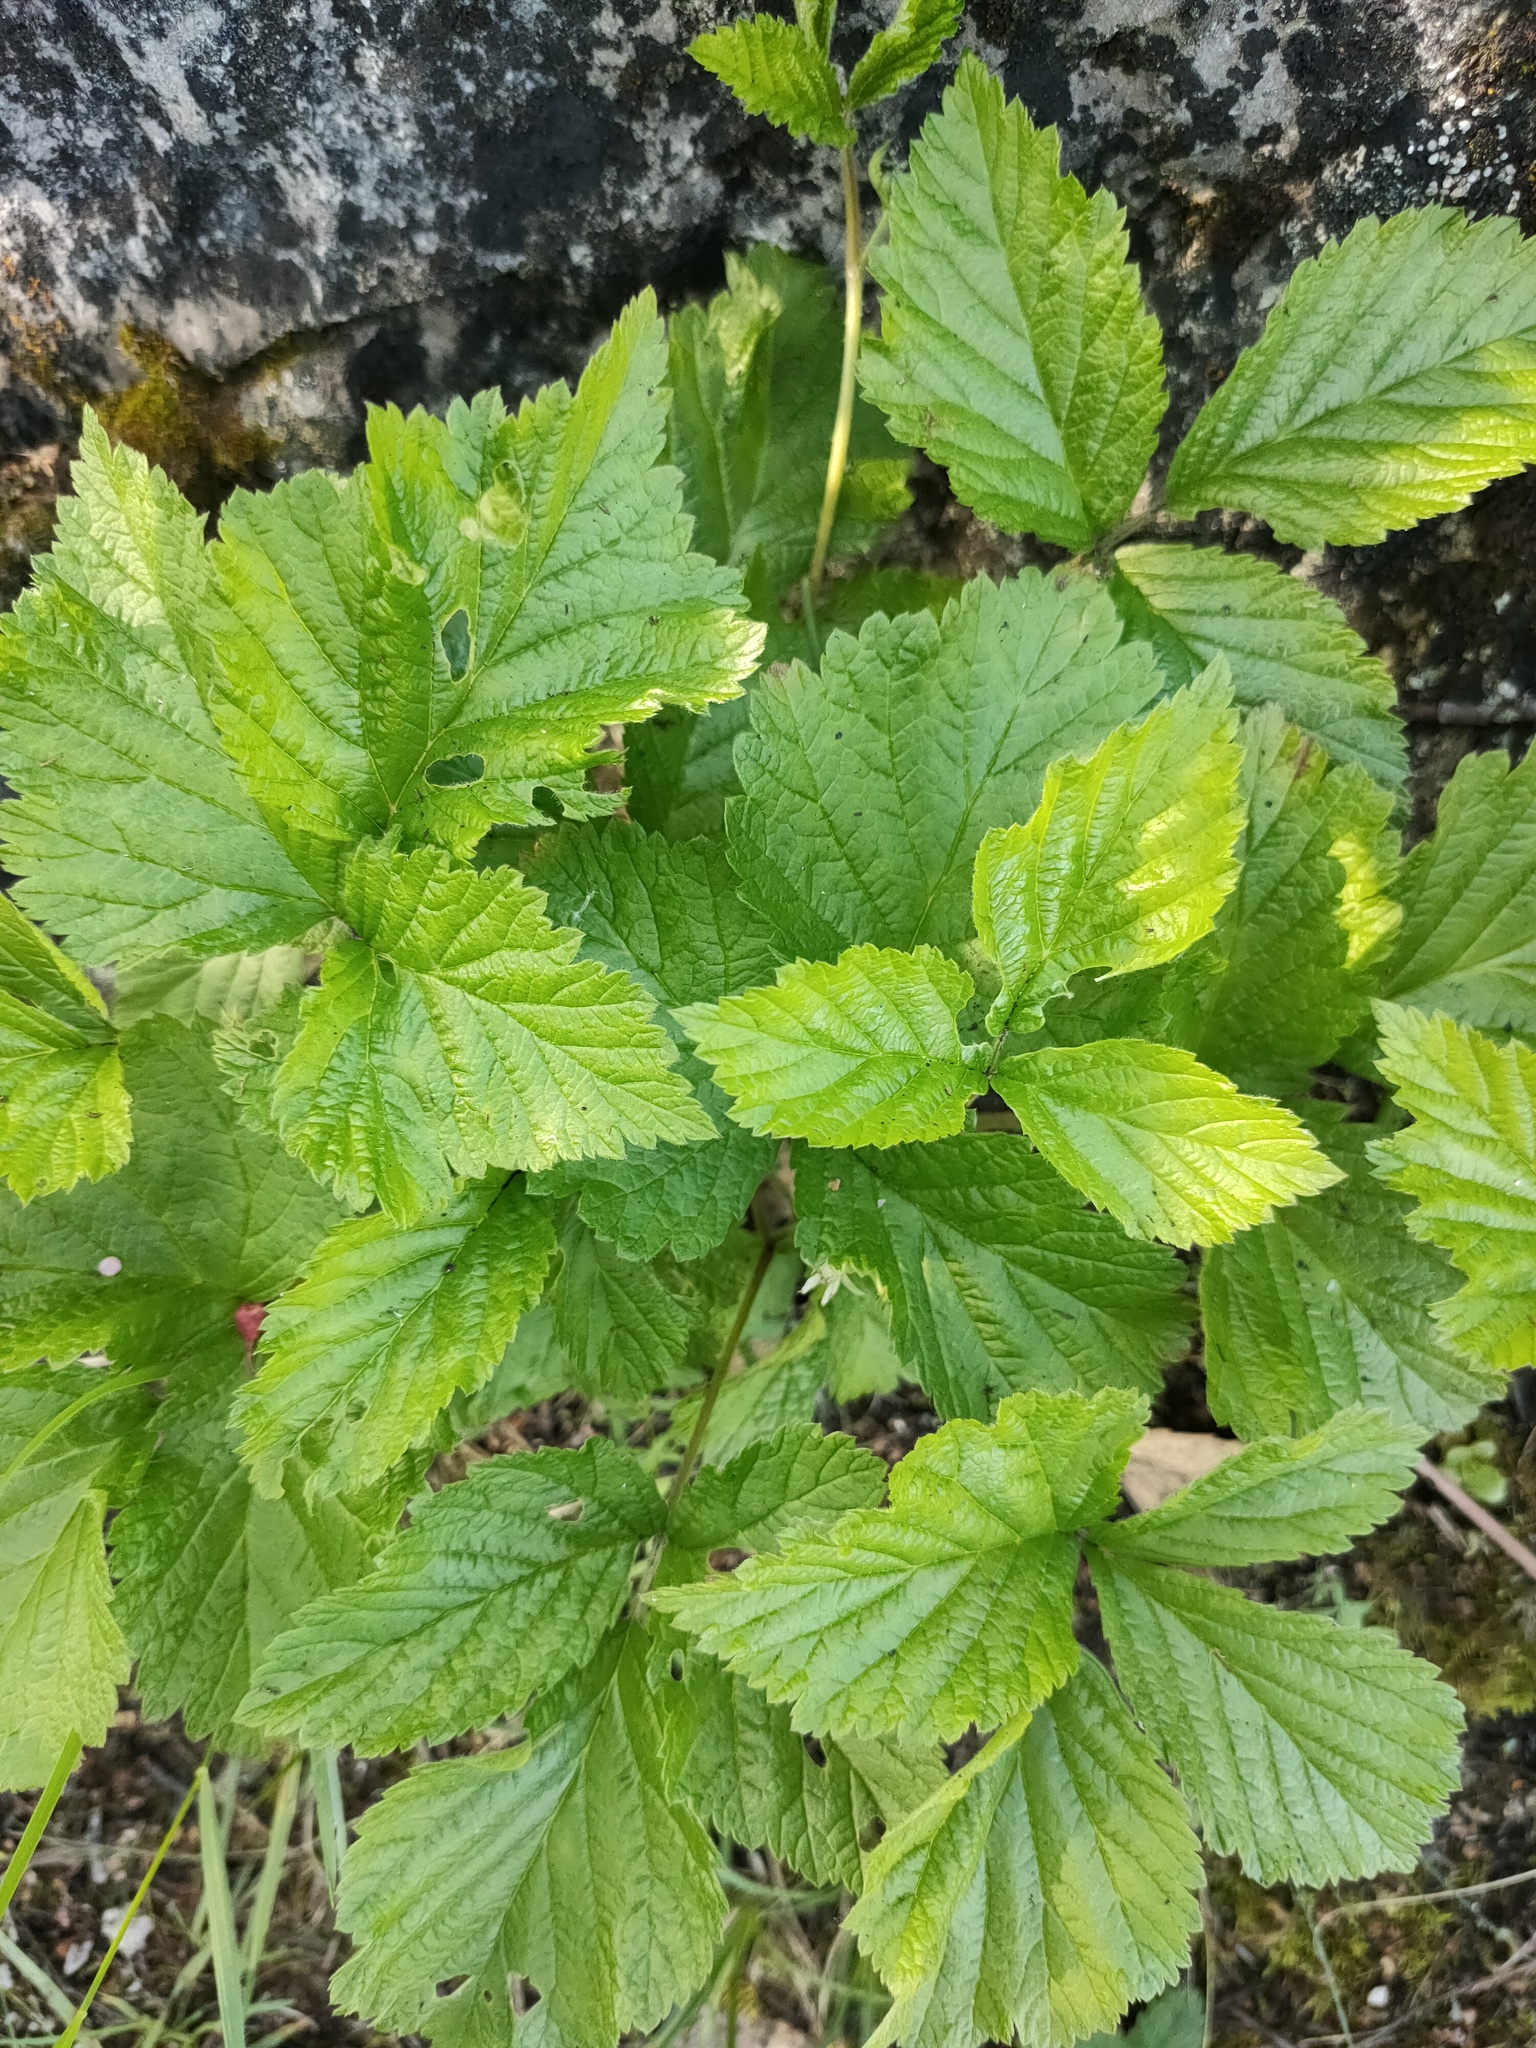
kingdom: Plantae
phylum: Tracheophyta
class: Magnoliopsida
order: Rosales
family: Rosaceae
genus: Rubus
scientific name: Rubus saxatilis
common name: Stone bramble
